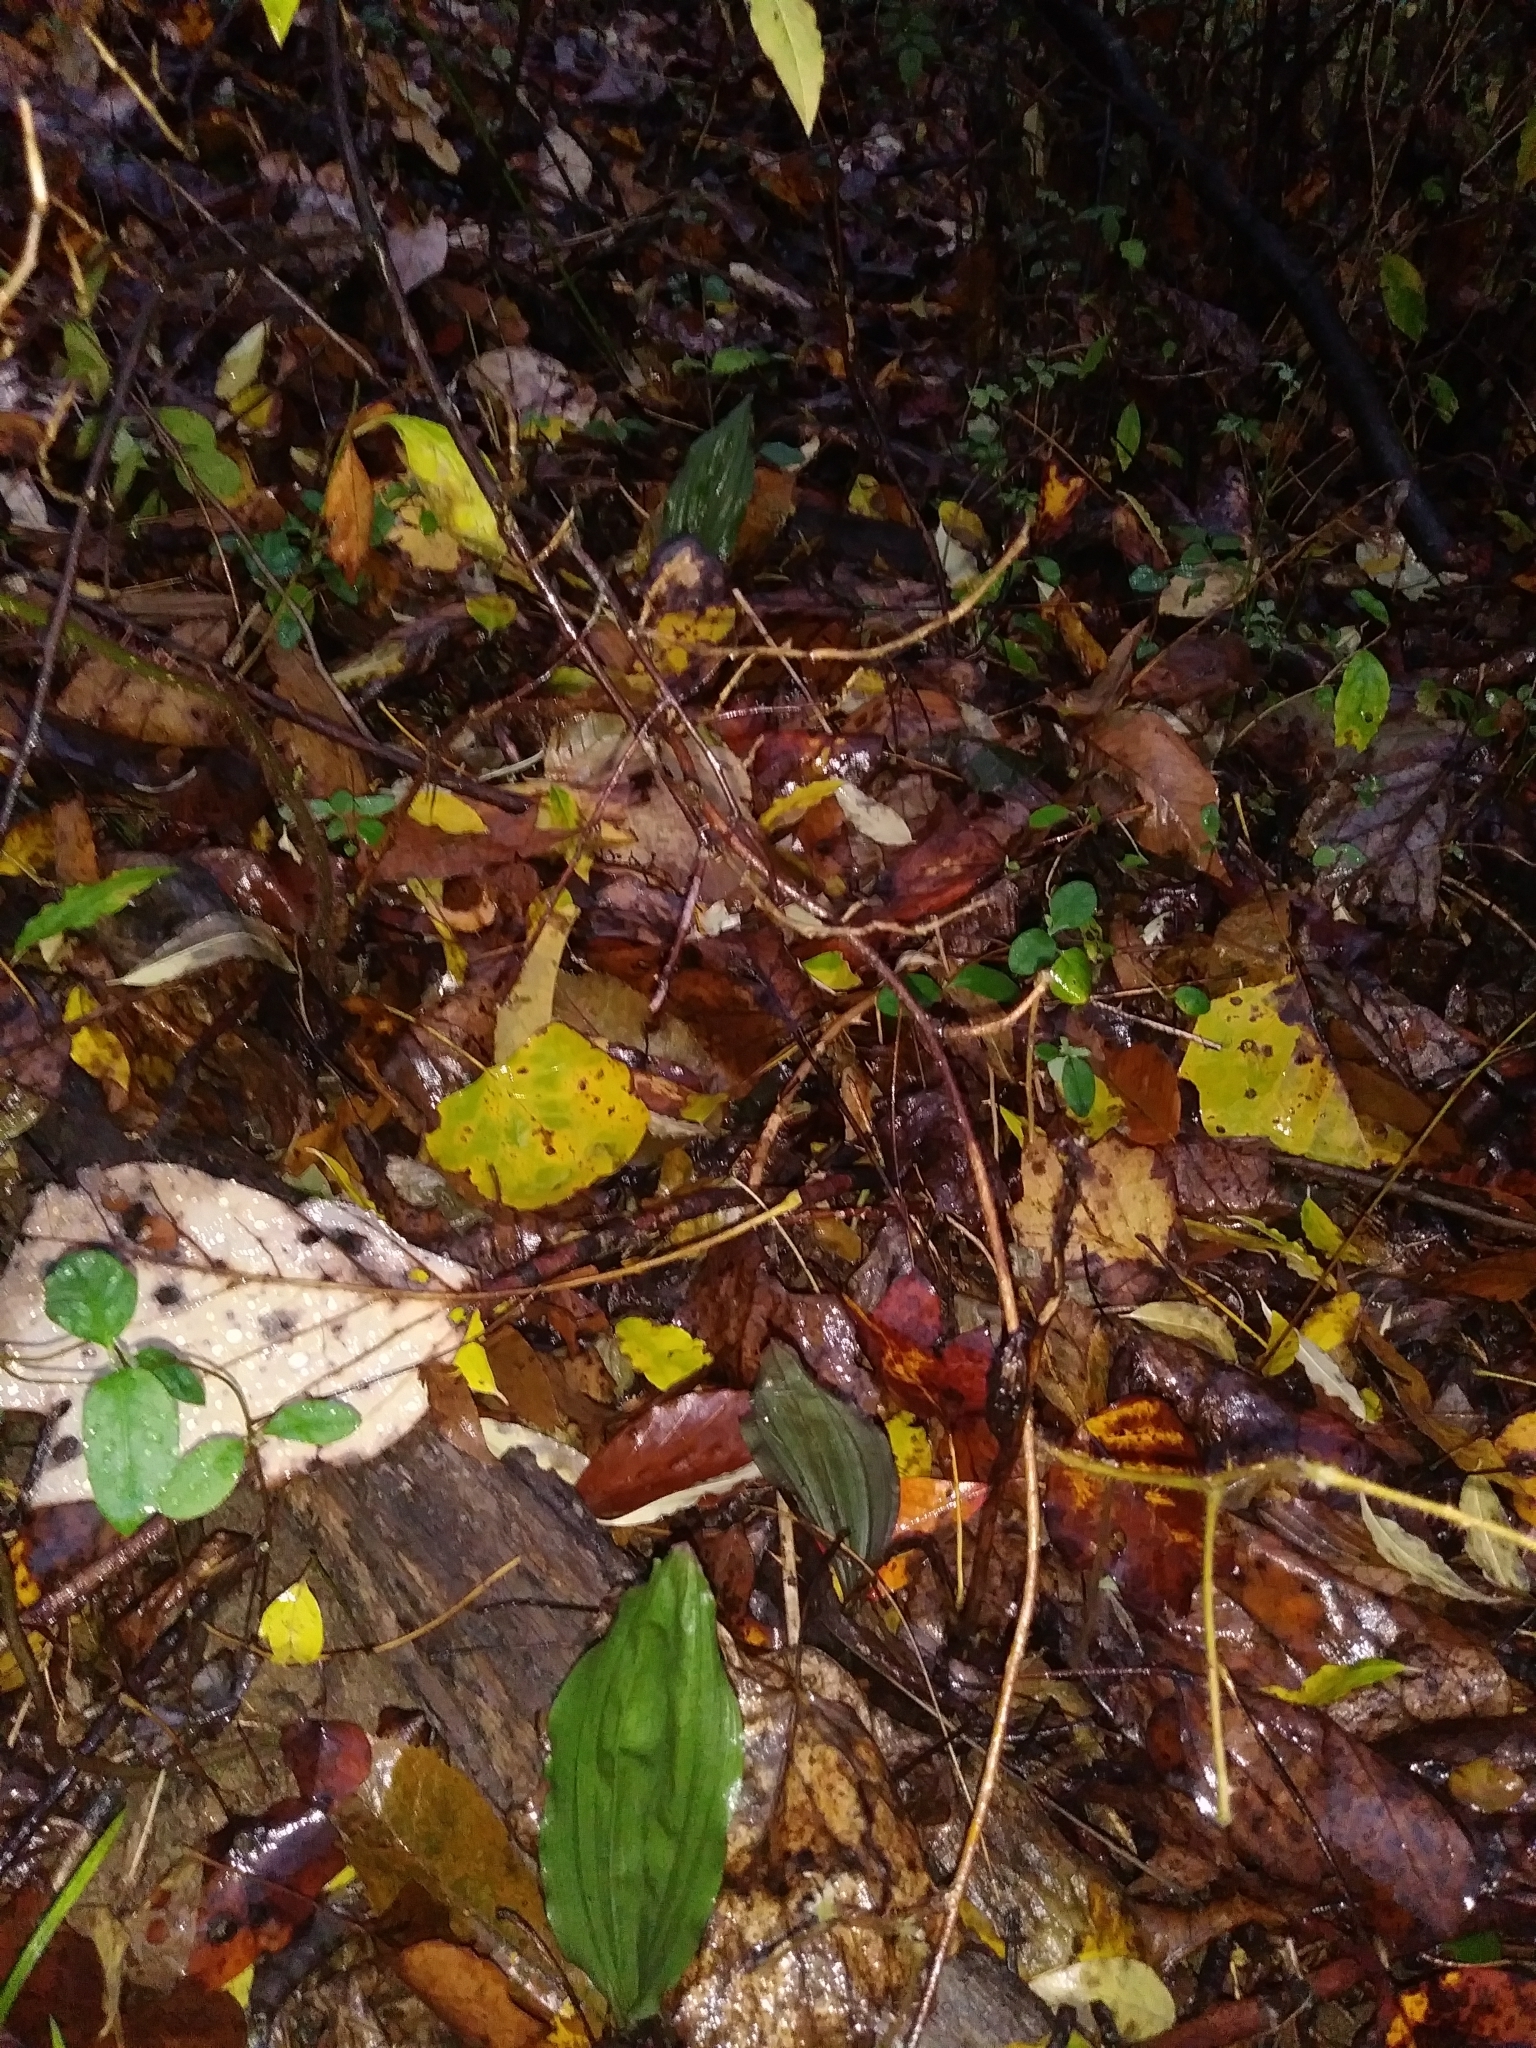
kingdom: Plantae
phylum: Tracheophyta
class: Liliopsida
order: Asparagales
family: Orchidaceae
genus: Aplectrum
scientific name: Aplectrum hyemale
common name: Adam-and-eve
